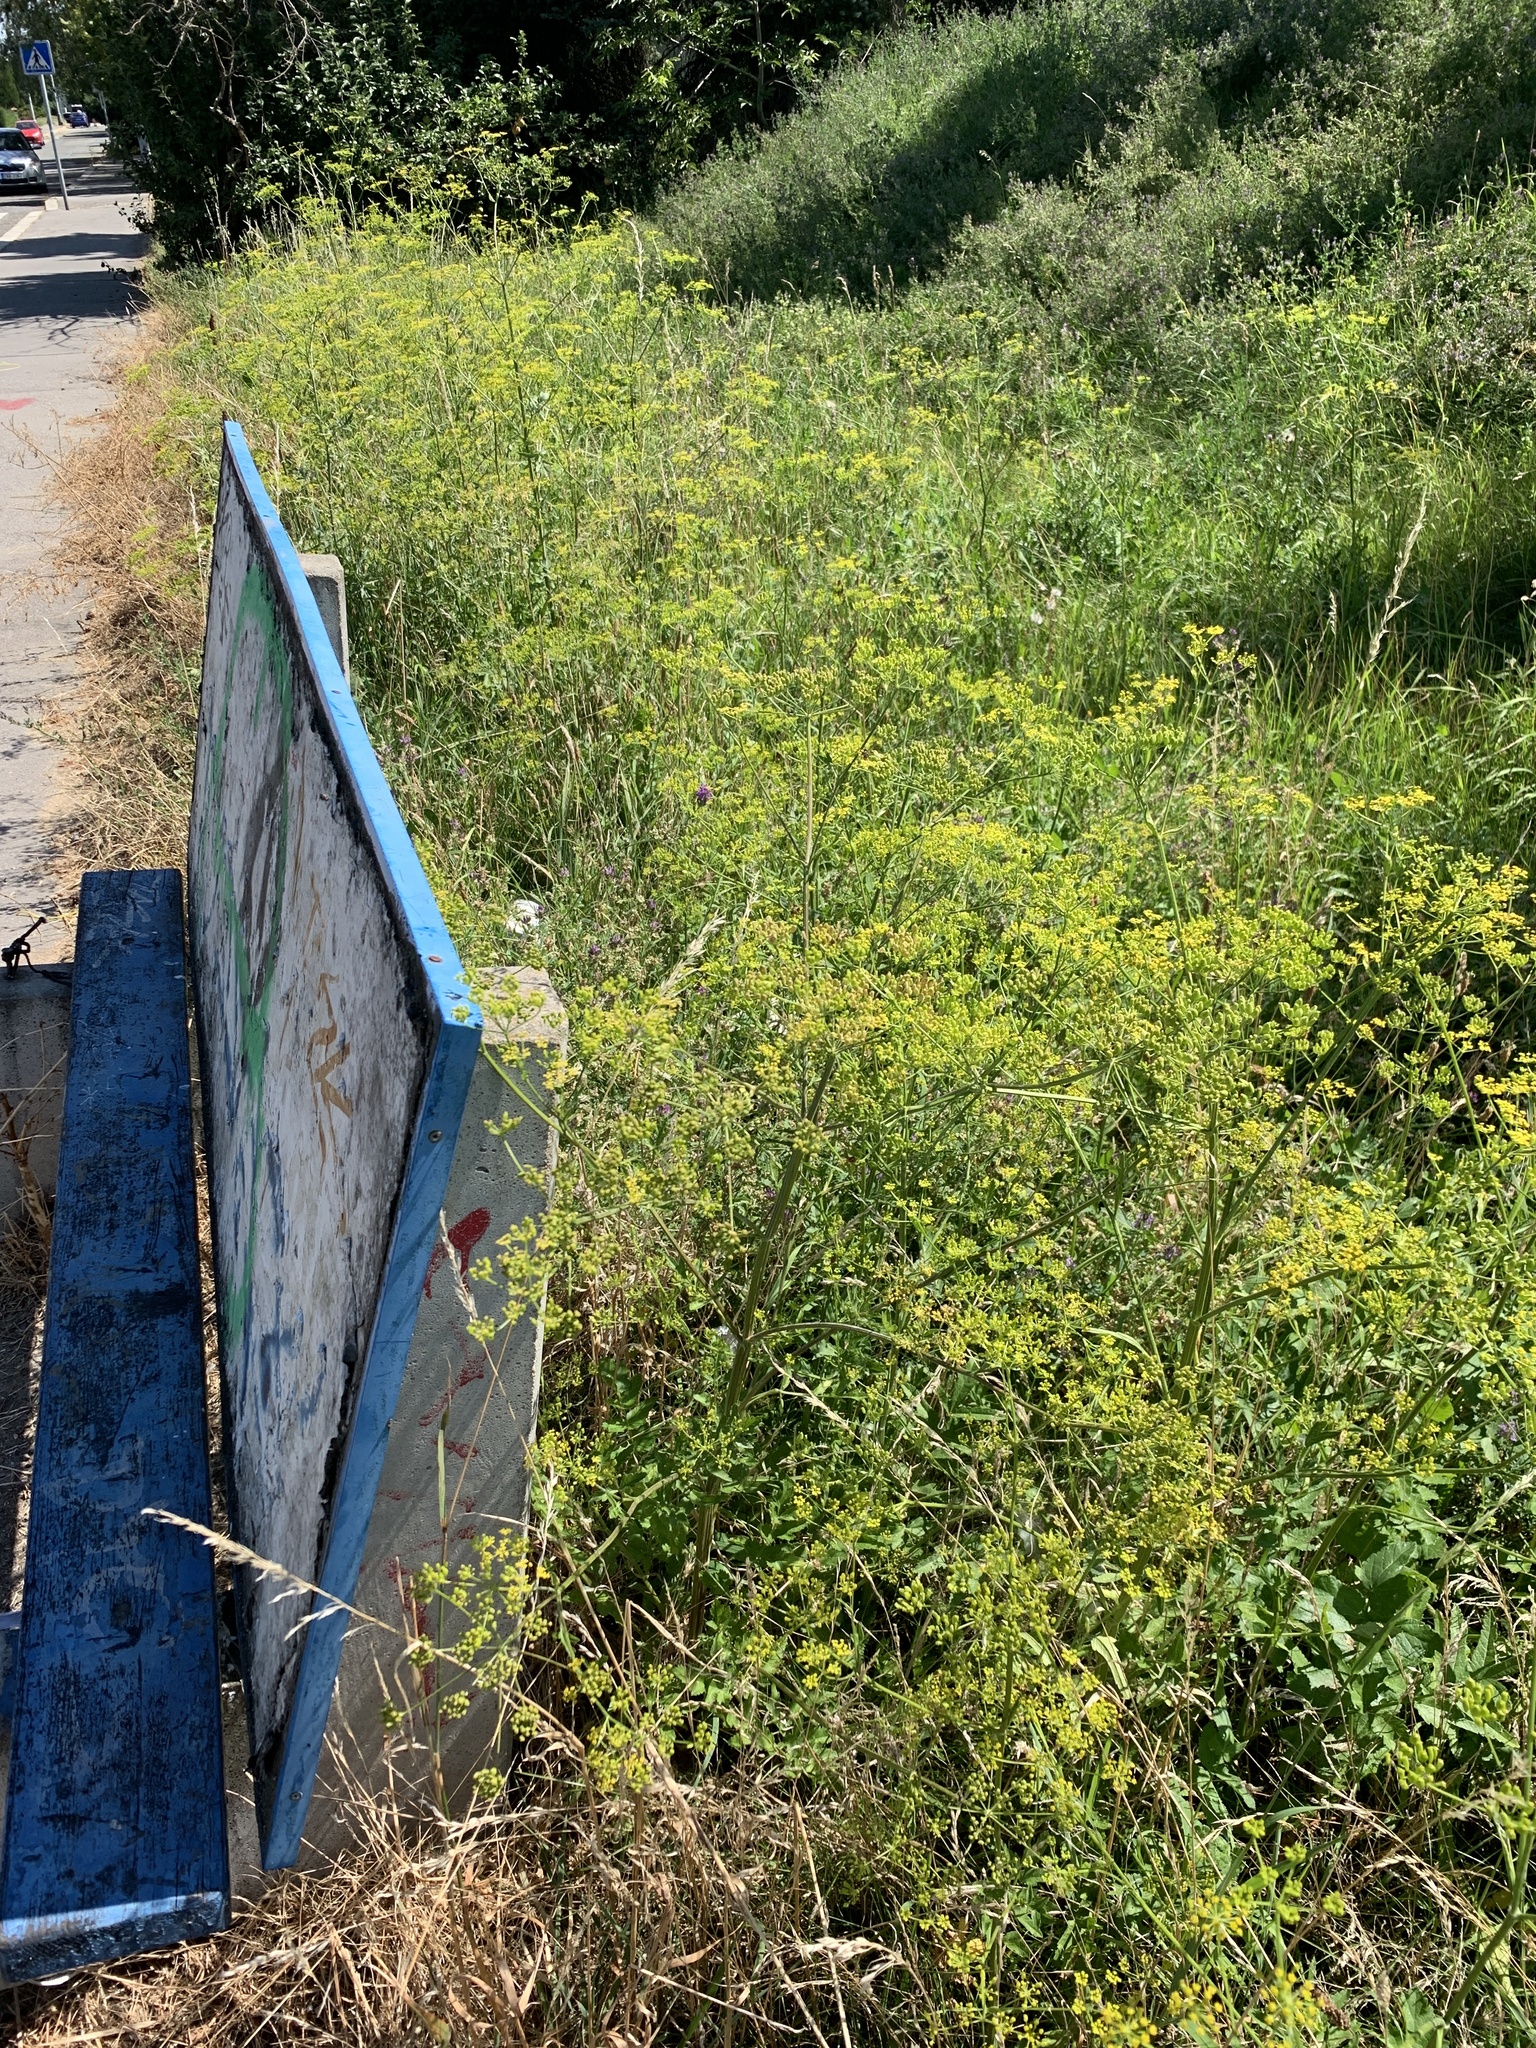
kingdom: Plantae
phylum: Tracheophyta
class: Magnoliopsida
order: Apiales
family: Apiaceae
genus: Pastinaca
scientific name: Pastinaca sativa
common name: Wild parsnip
